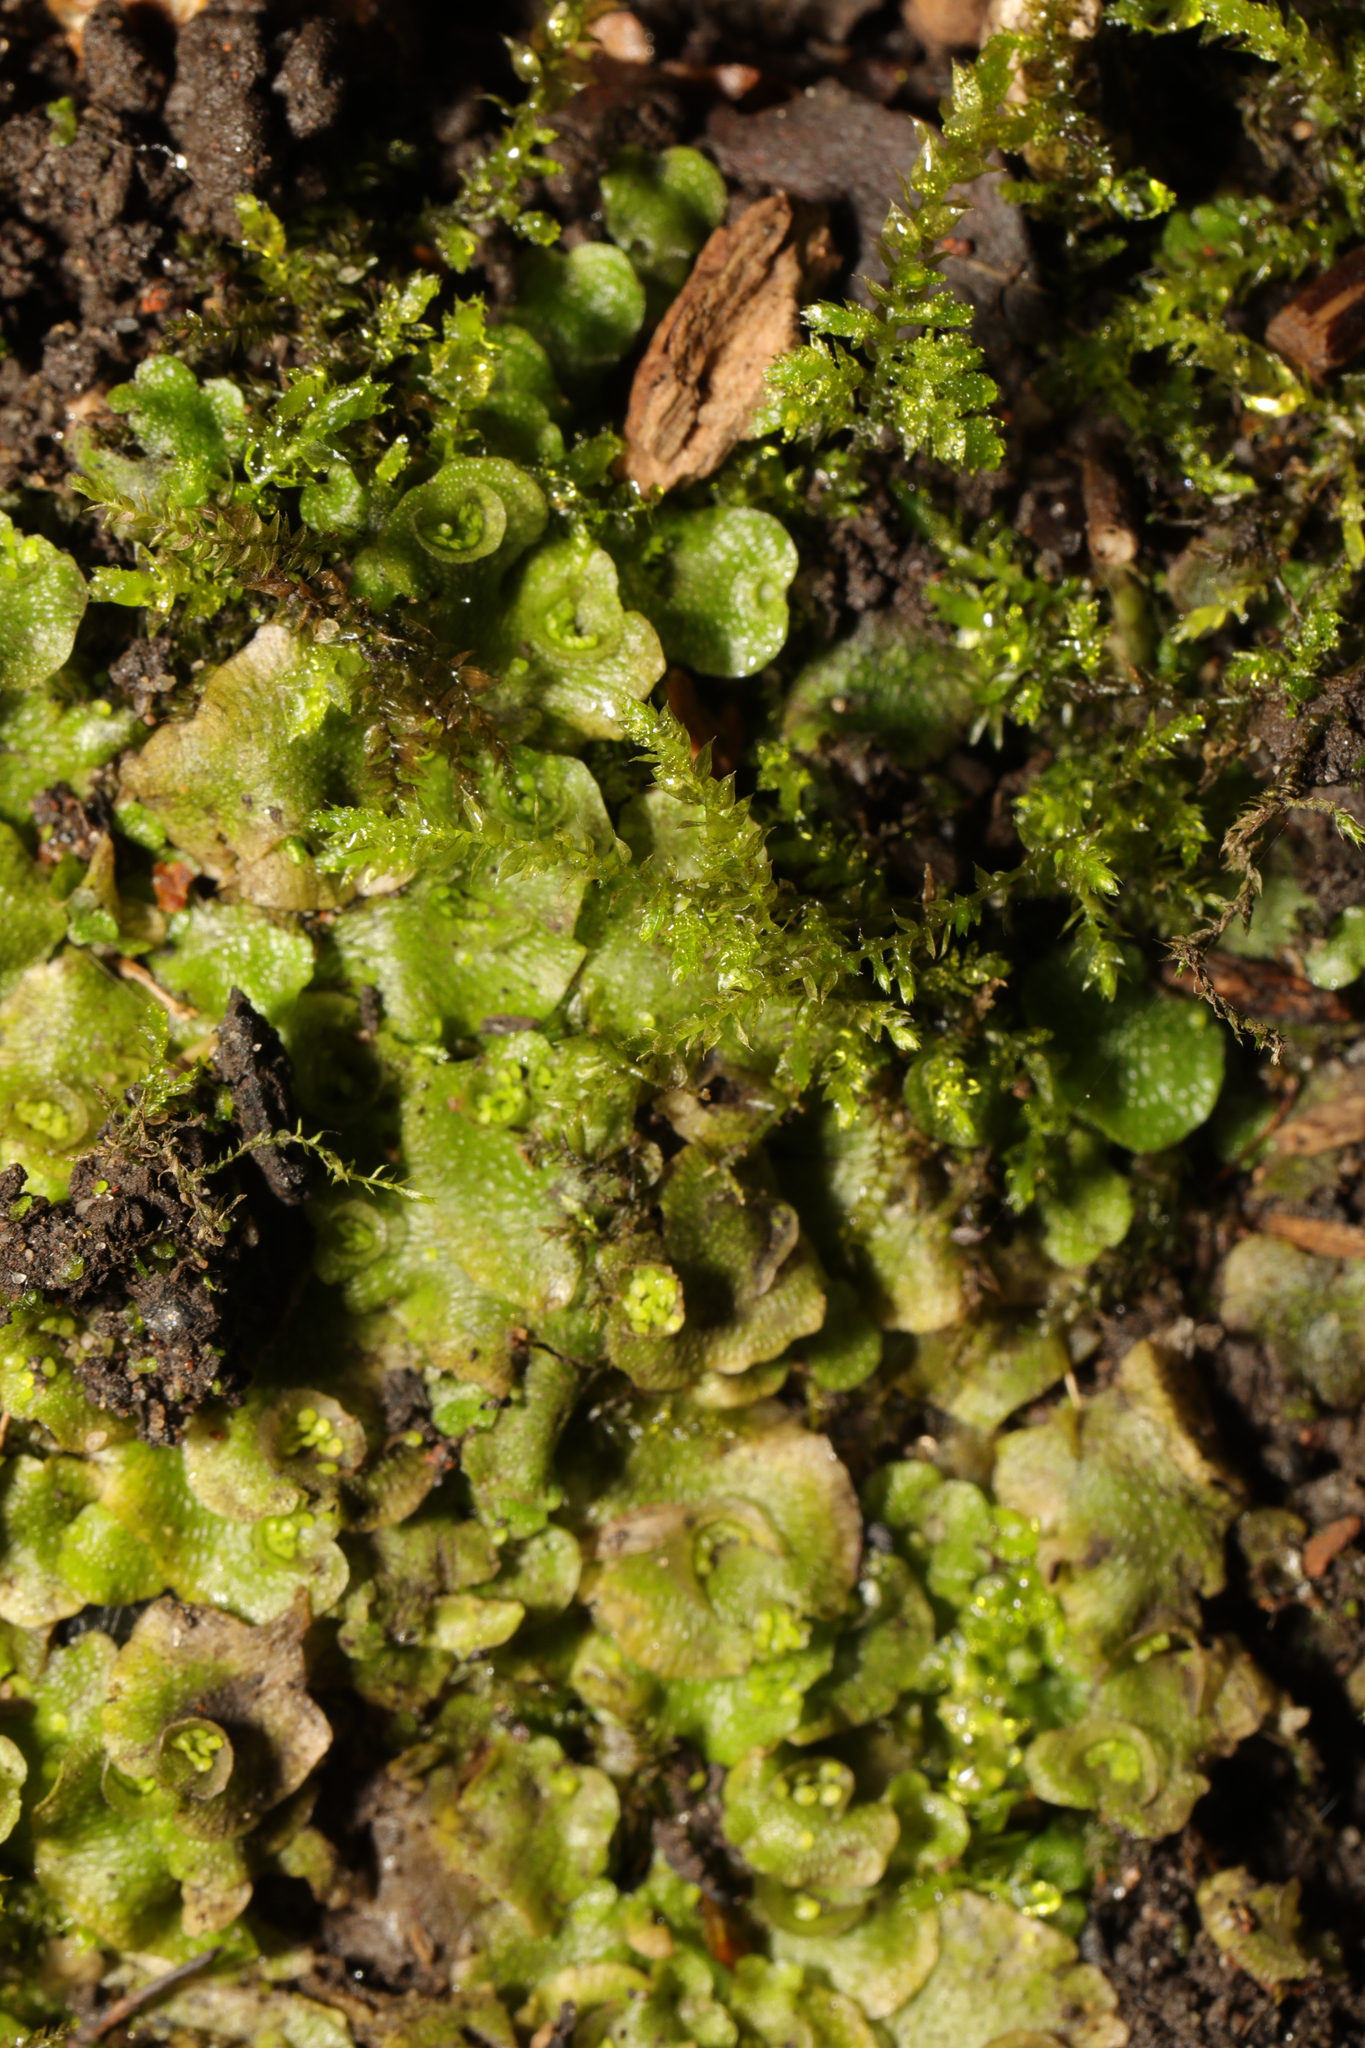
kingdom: Plantae
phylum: Marchantiophyta
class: Marchantiopsida
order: Lunulariales
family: Lunulariaceae
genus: Lunularia
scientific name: Lunularia cruciata
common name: Crescent-cup liverwort
